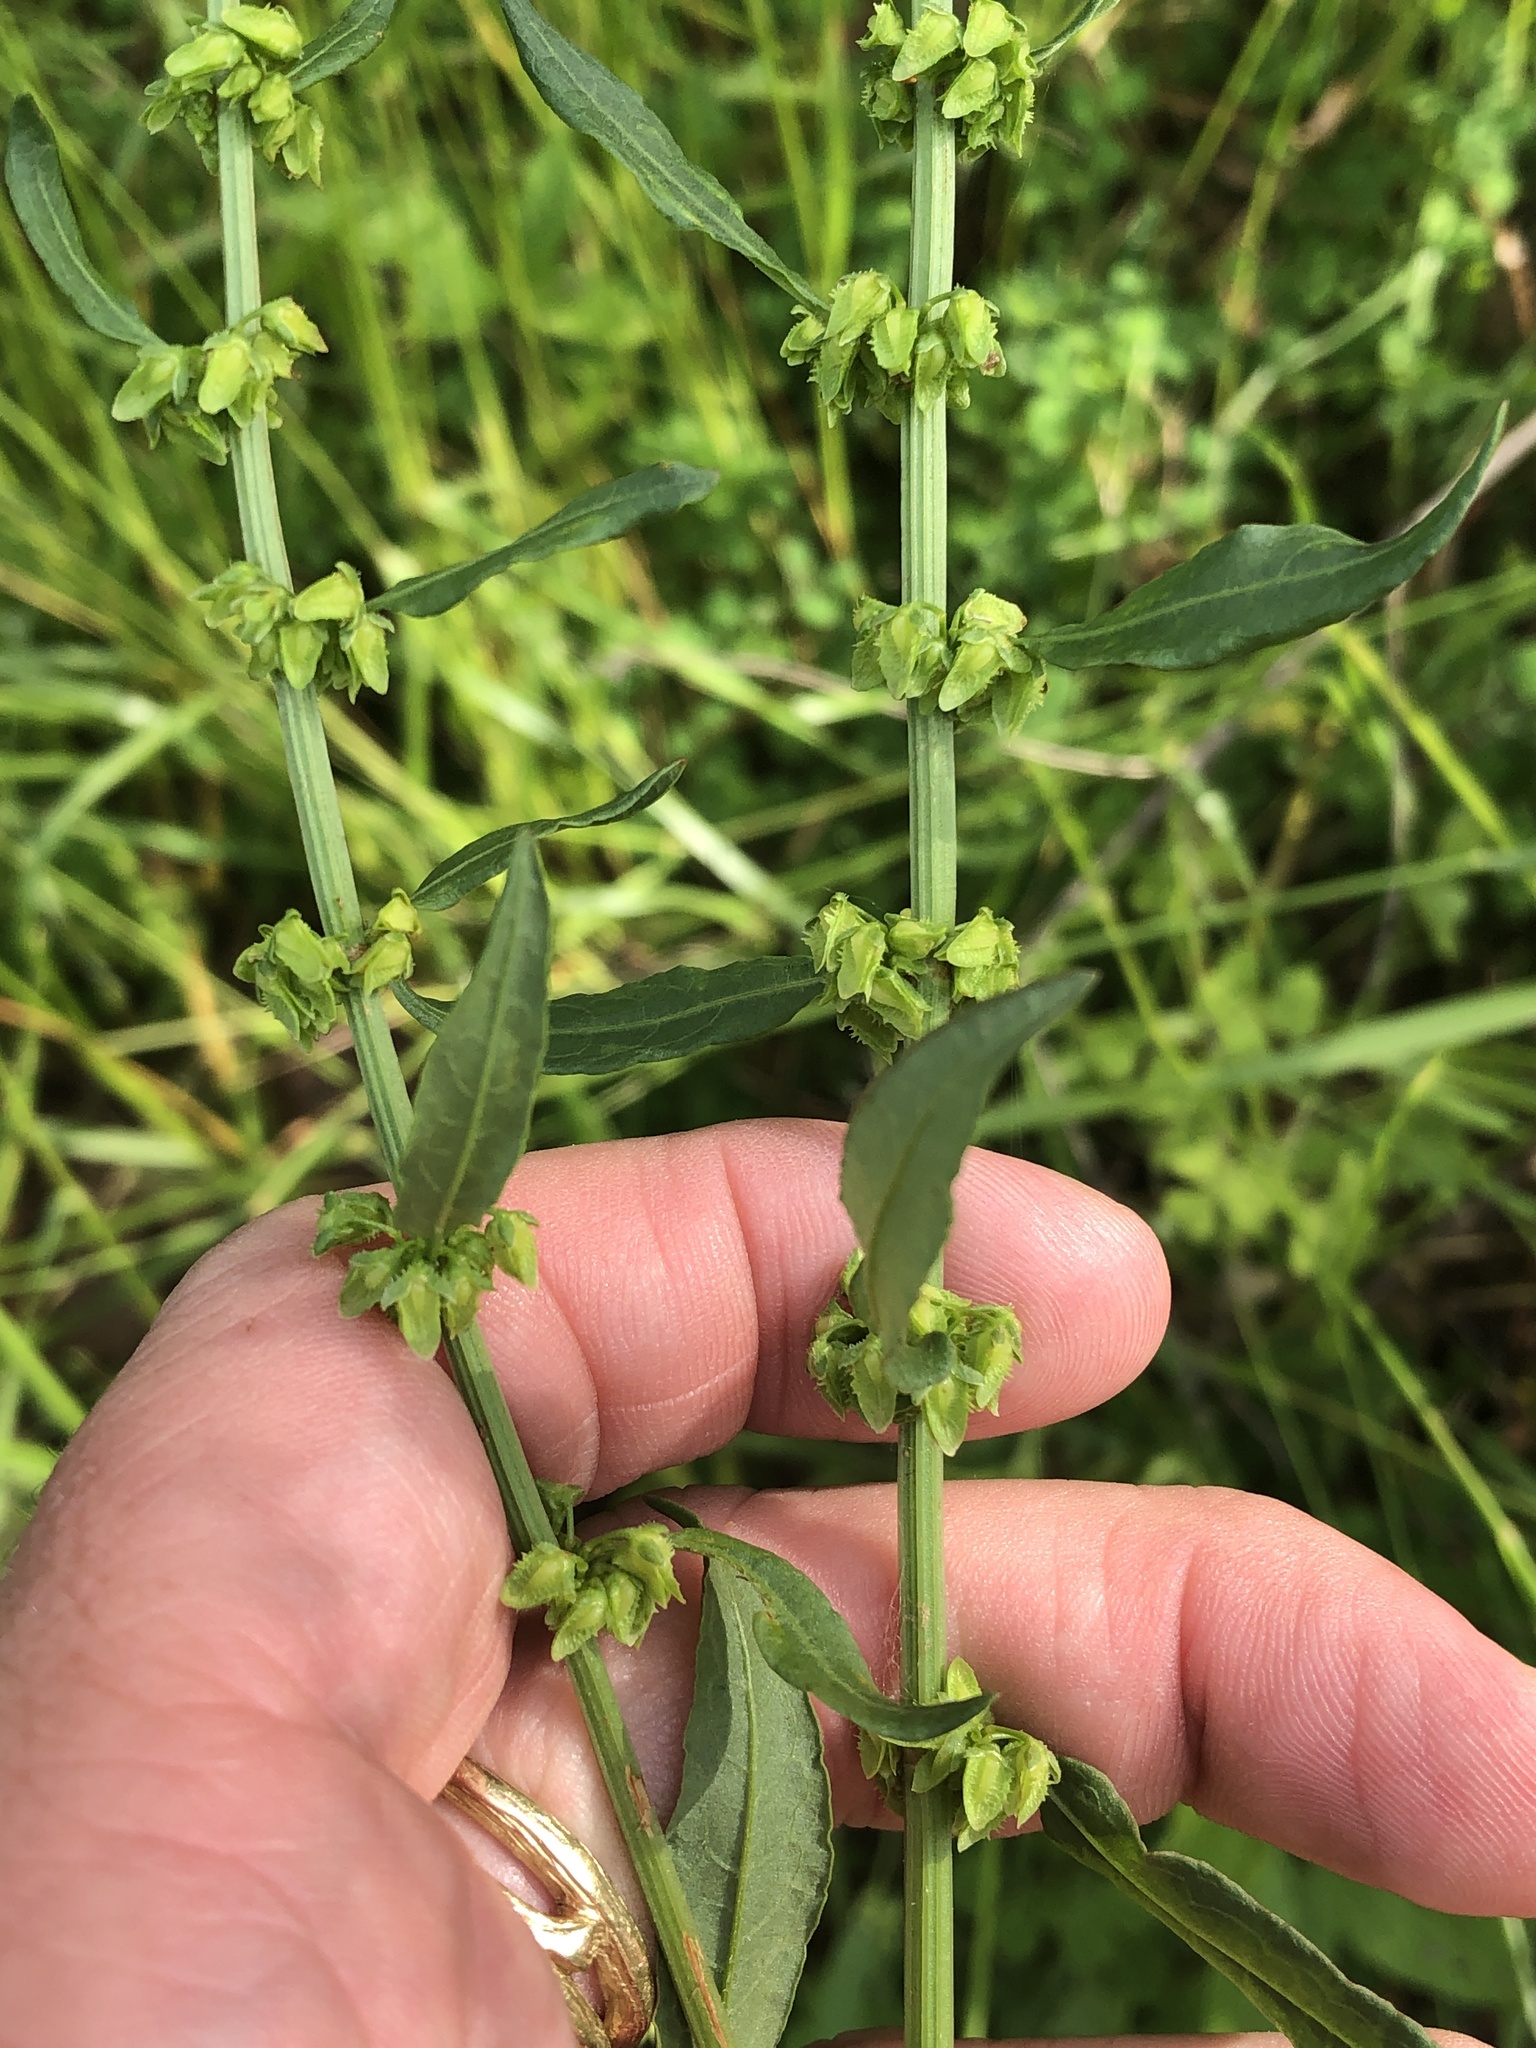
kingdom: Plantae
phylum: Tracheophyta
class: Magnoliopsida
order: Caryophyllales
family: Polygonaceae
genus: Rumex
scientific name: Rumex pulcher
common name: Fiddle dock
